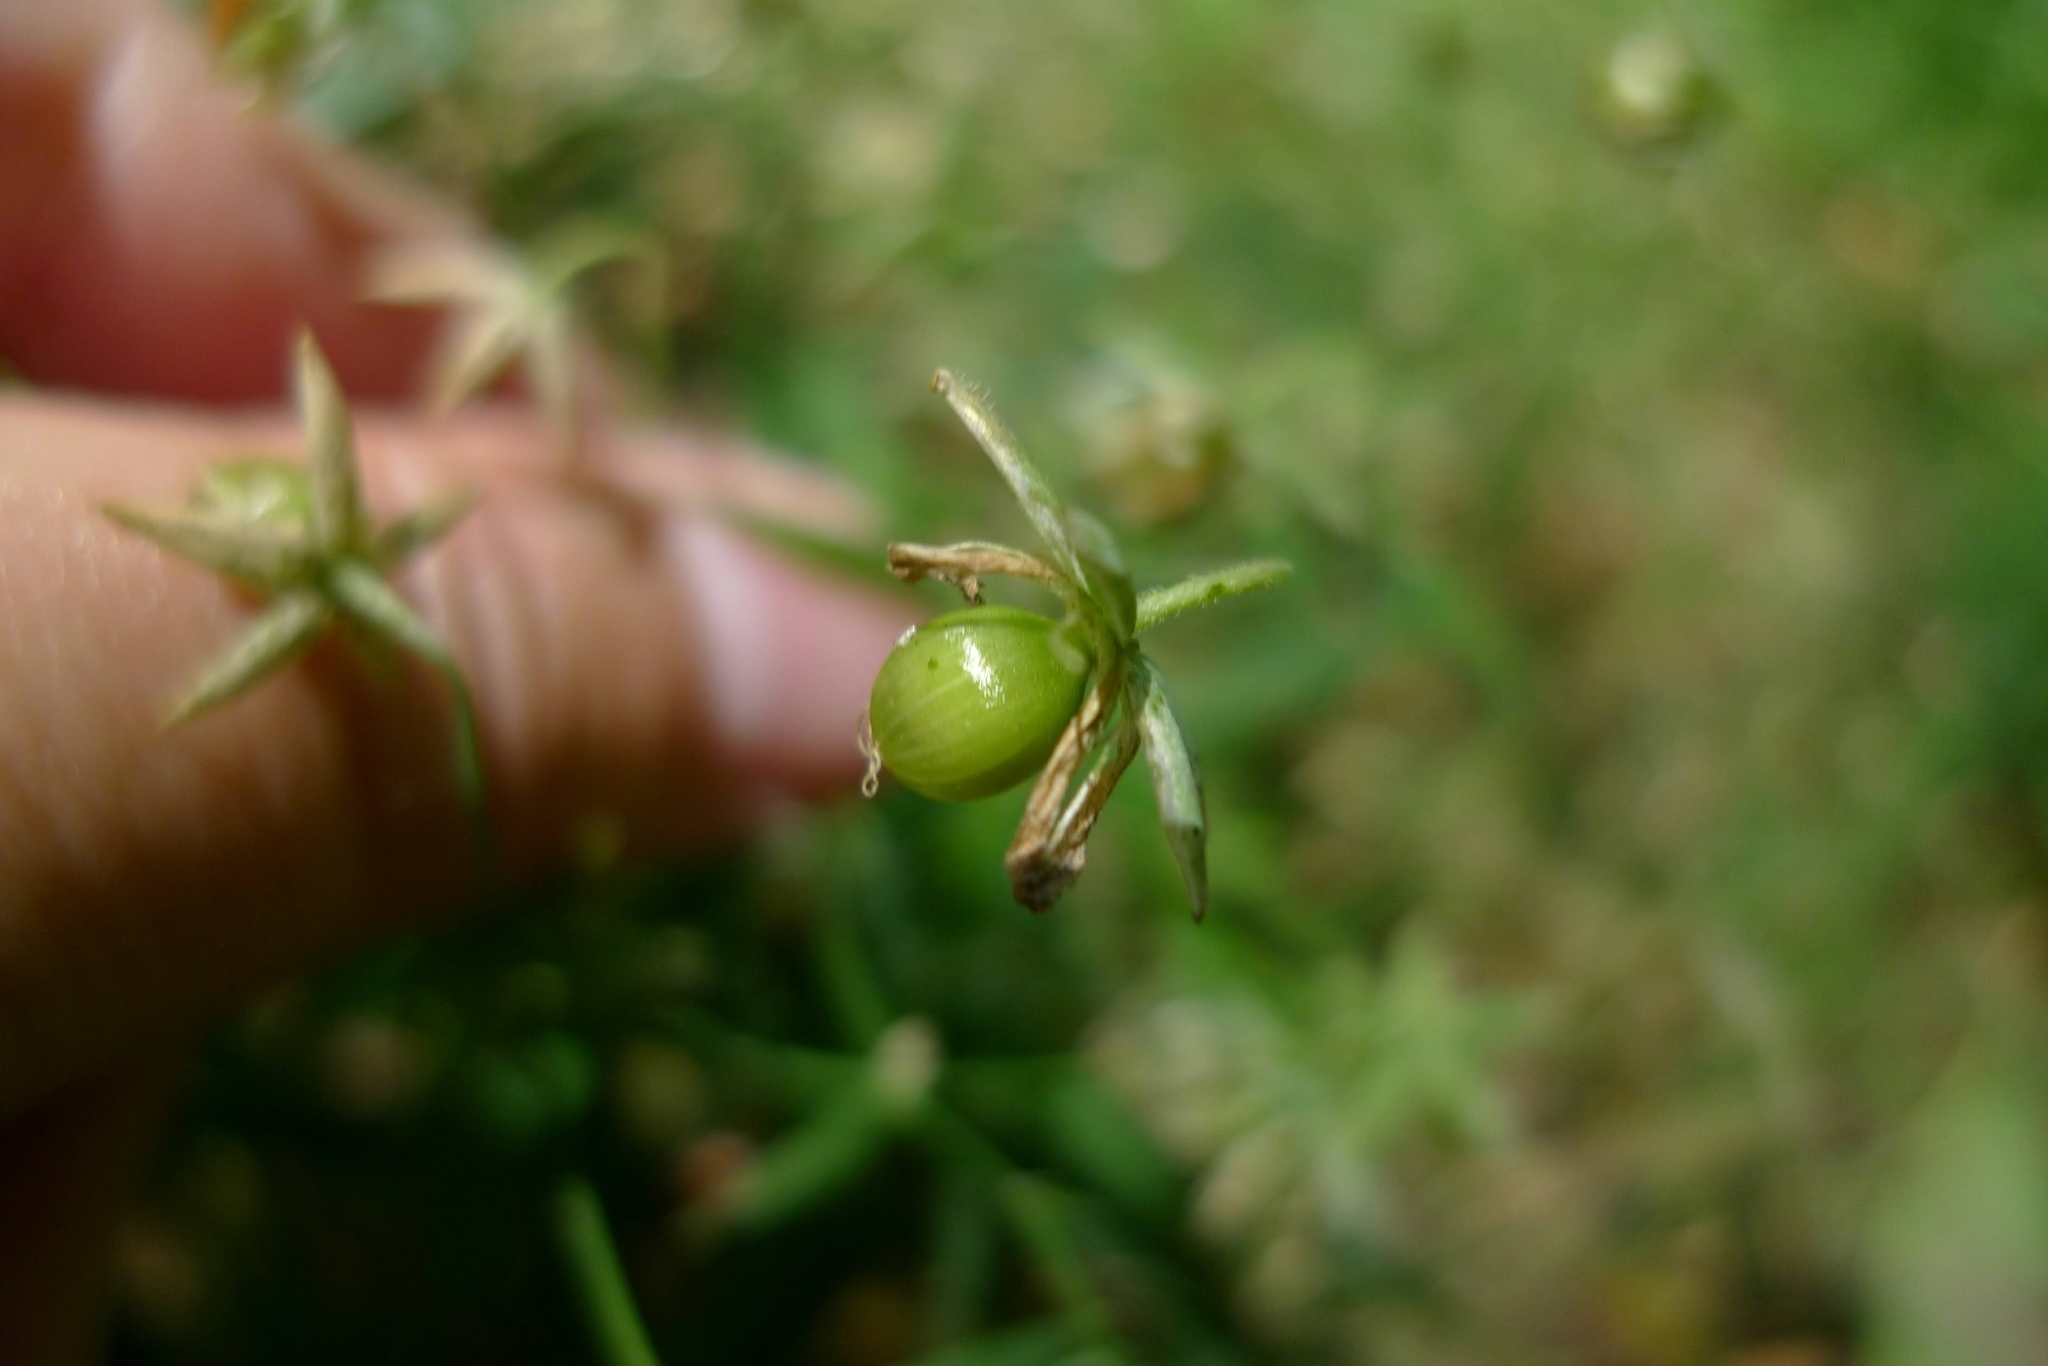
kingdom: Plantae
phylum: Tracheophyta
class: Magnoliopsida
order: Caryophyllales
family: Caryophyllaceae
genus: Rabelera
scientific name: Rabelera holostea
